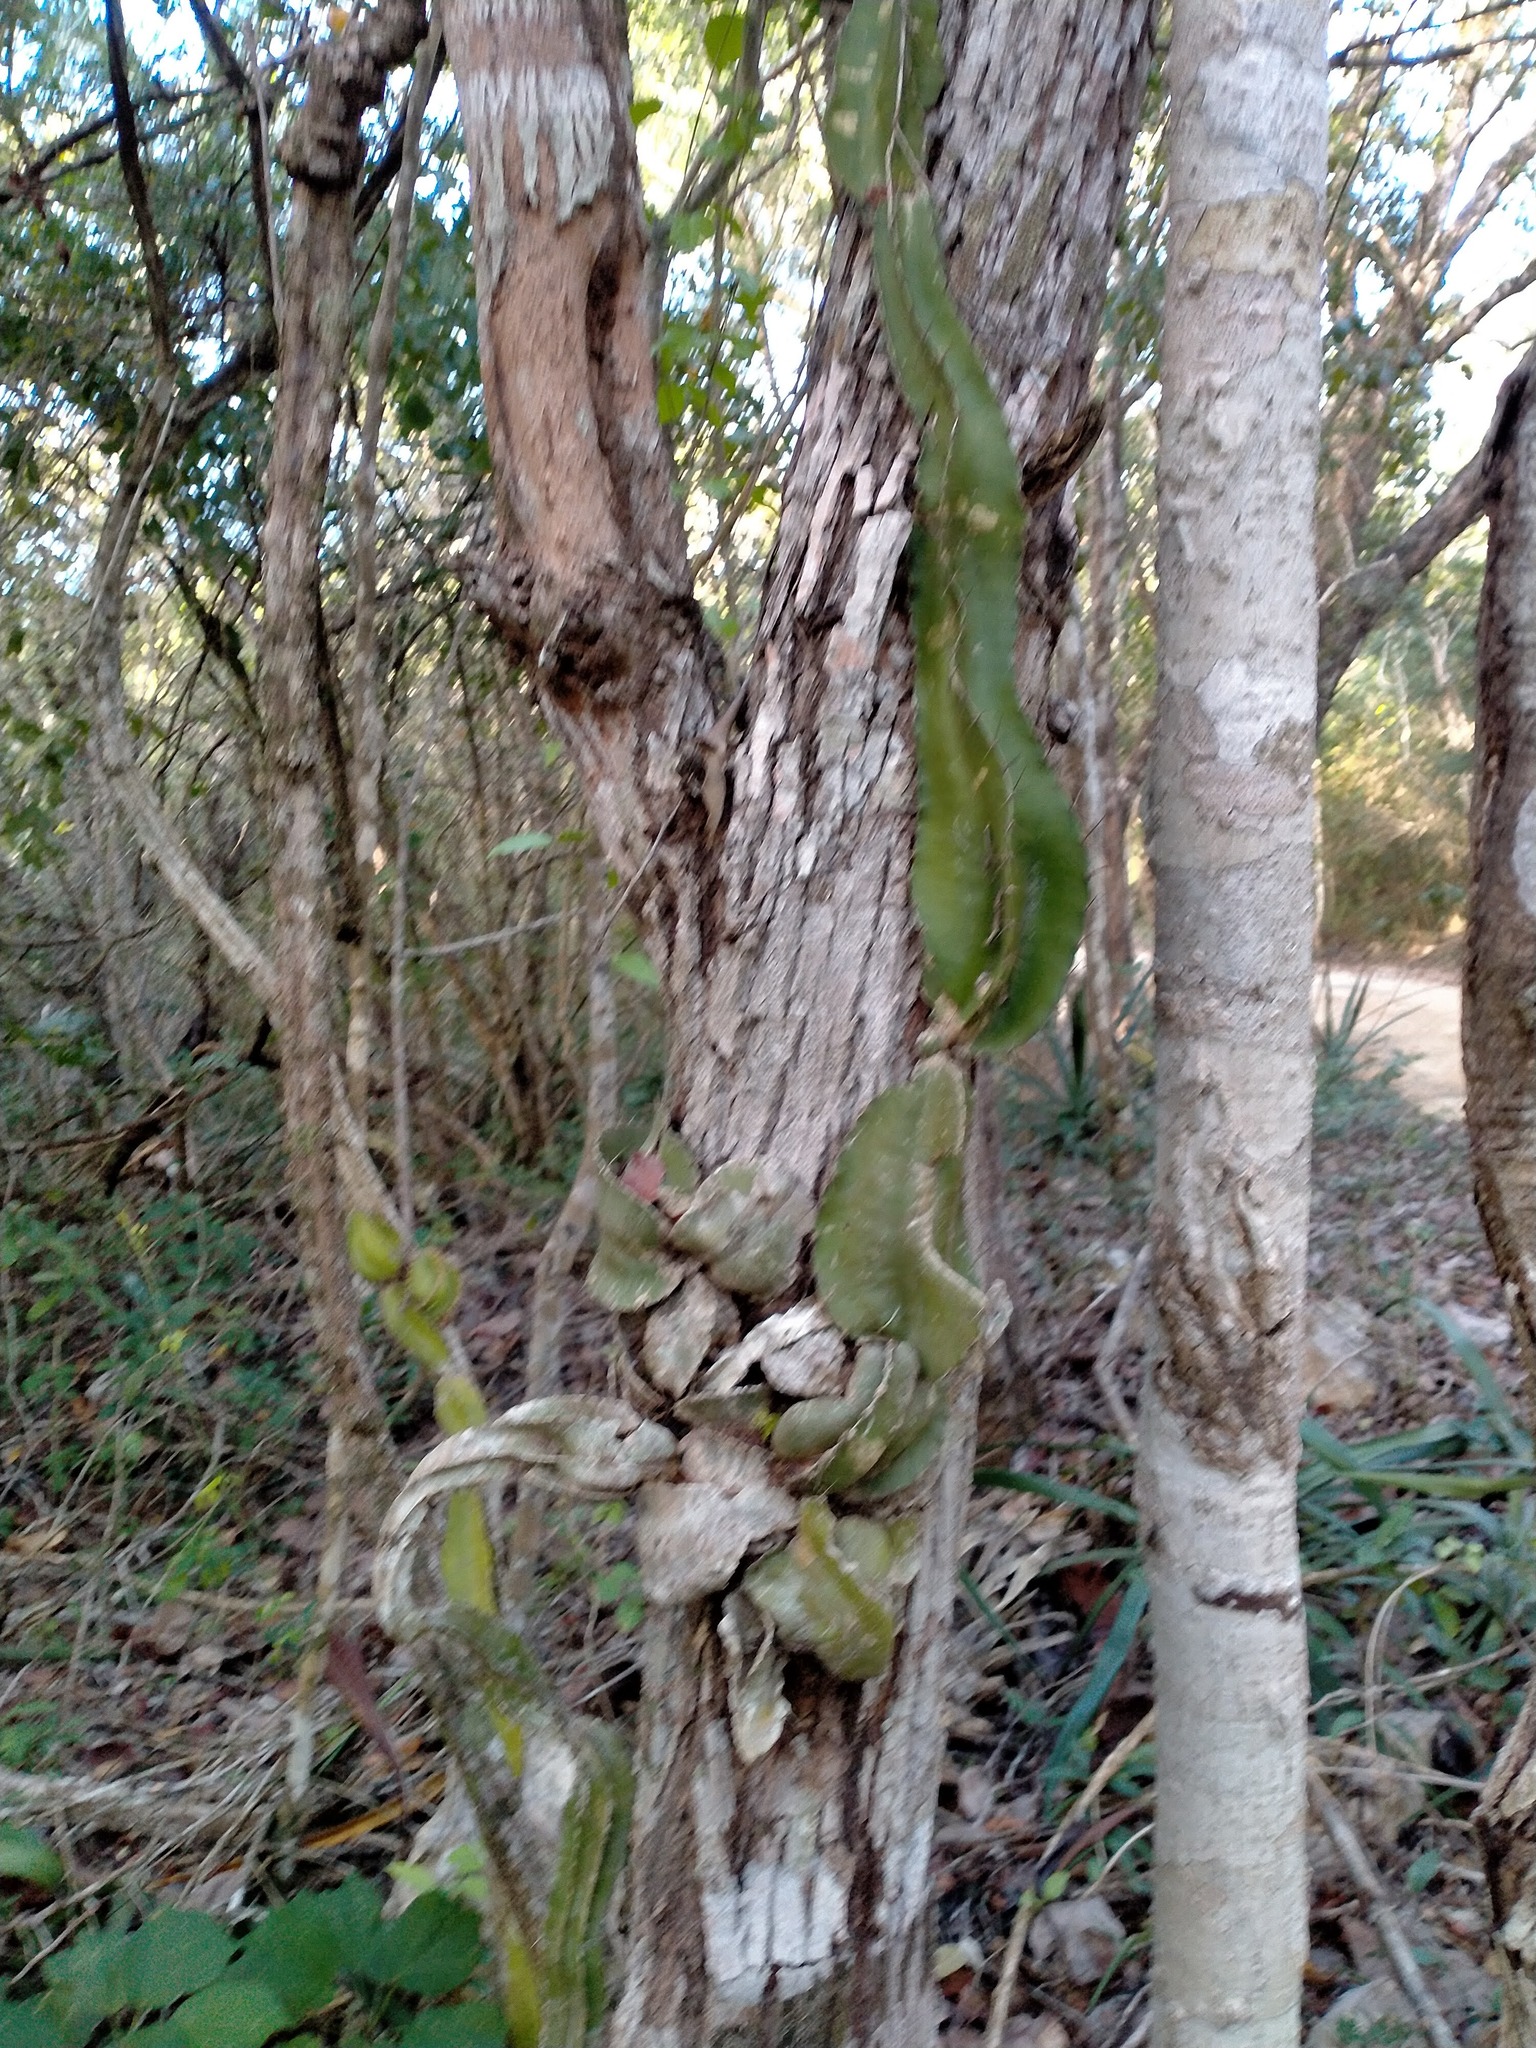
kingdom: Plantae
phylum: Tracheophyta
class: Magnoliopsida
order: Caryophyllales
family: Cactaceae
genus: Deamia
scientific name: Deamia testudo
